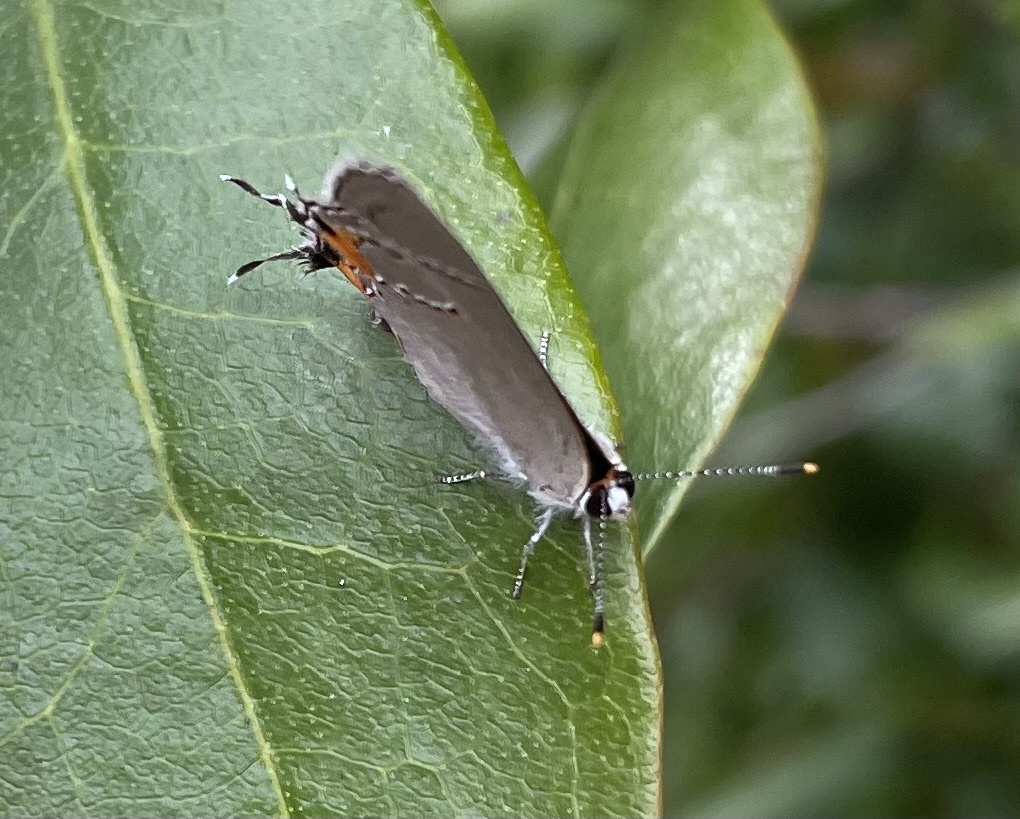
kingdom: Animalia
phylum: Arthropoda
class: Insecta
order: Lepidoptera
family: Lycaenidae
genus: Strymon
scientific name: Strymon melinus
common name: Gray hairstreak
